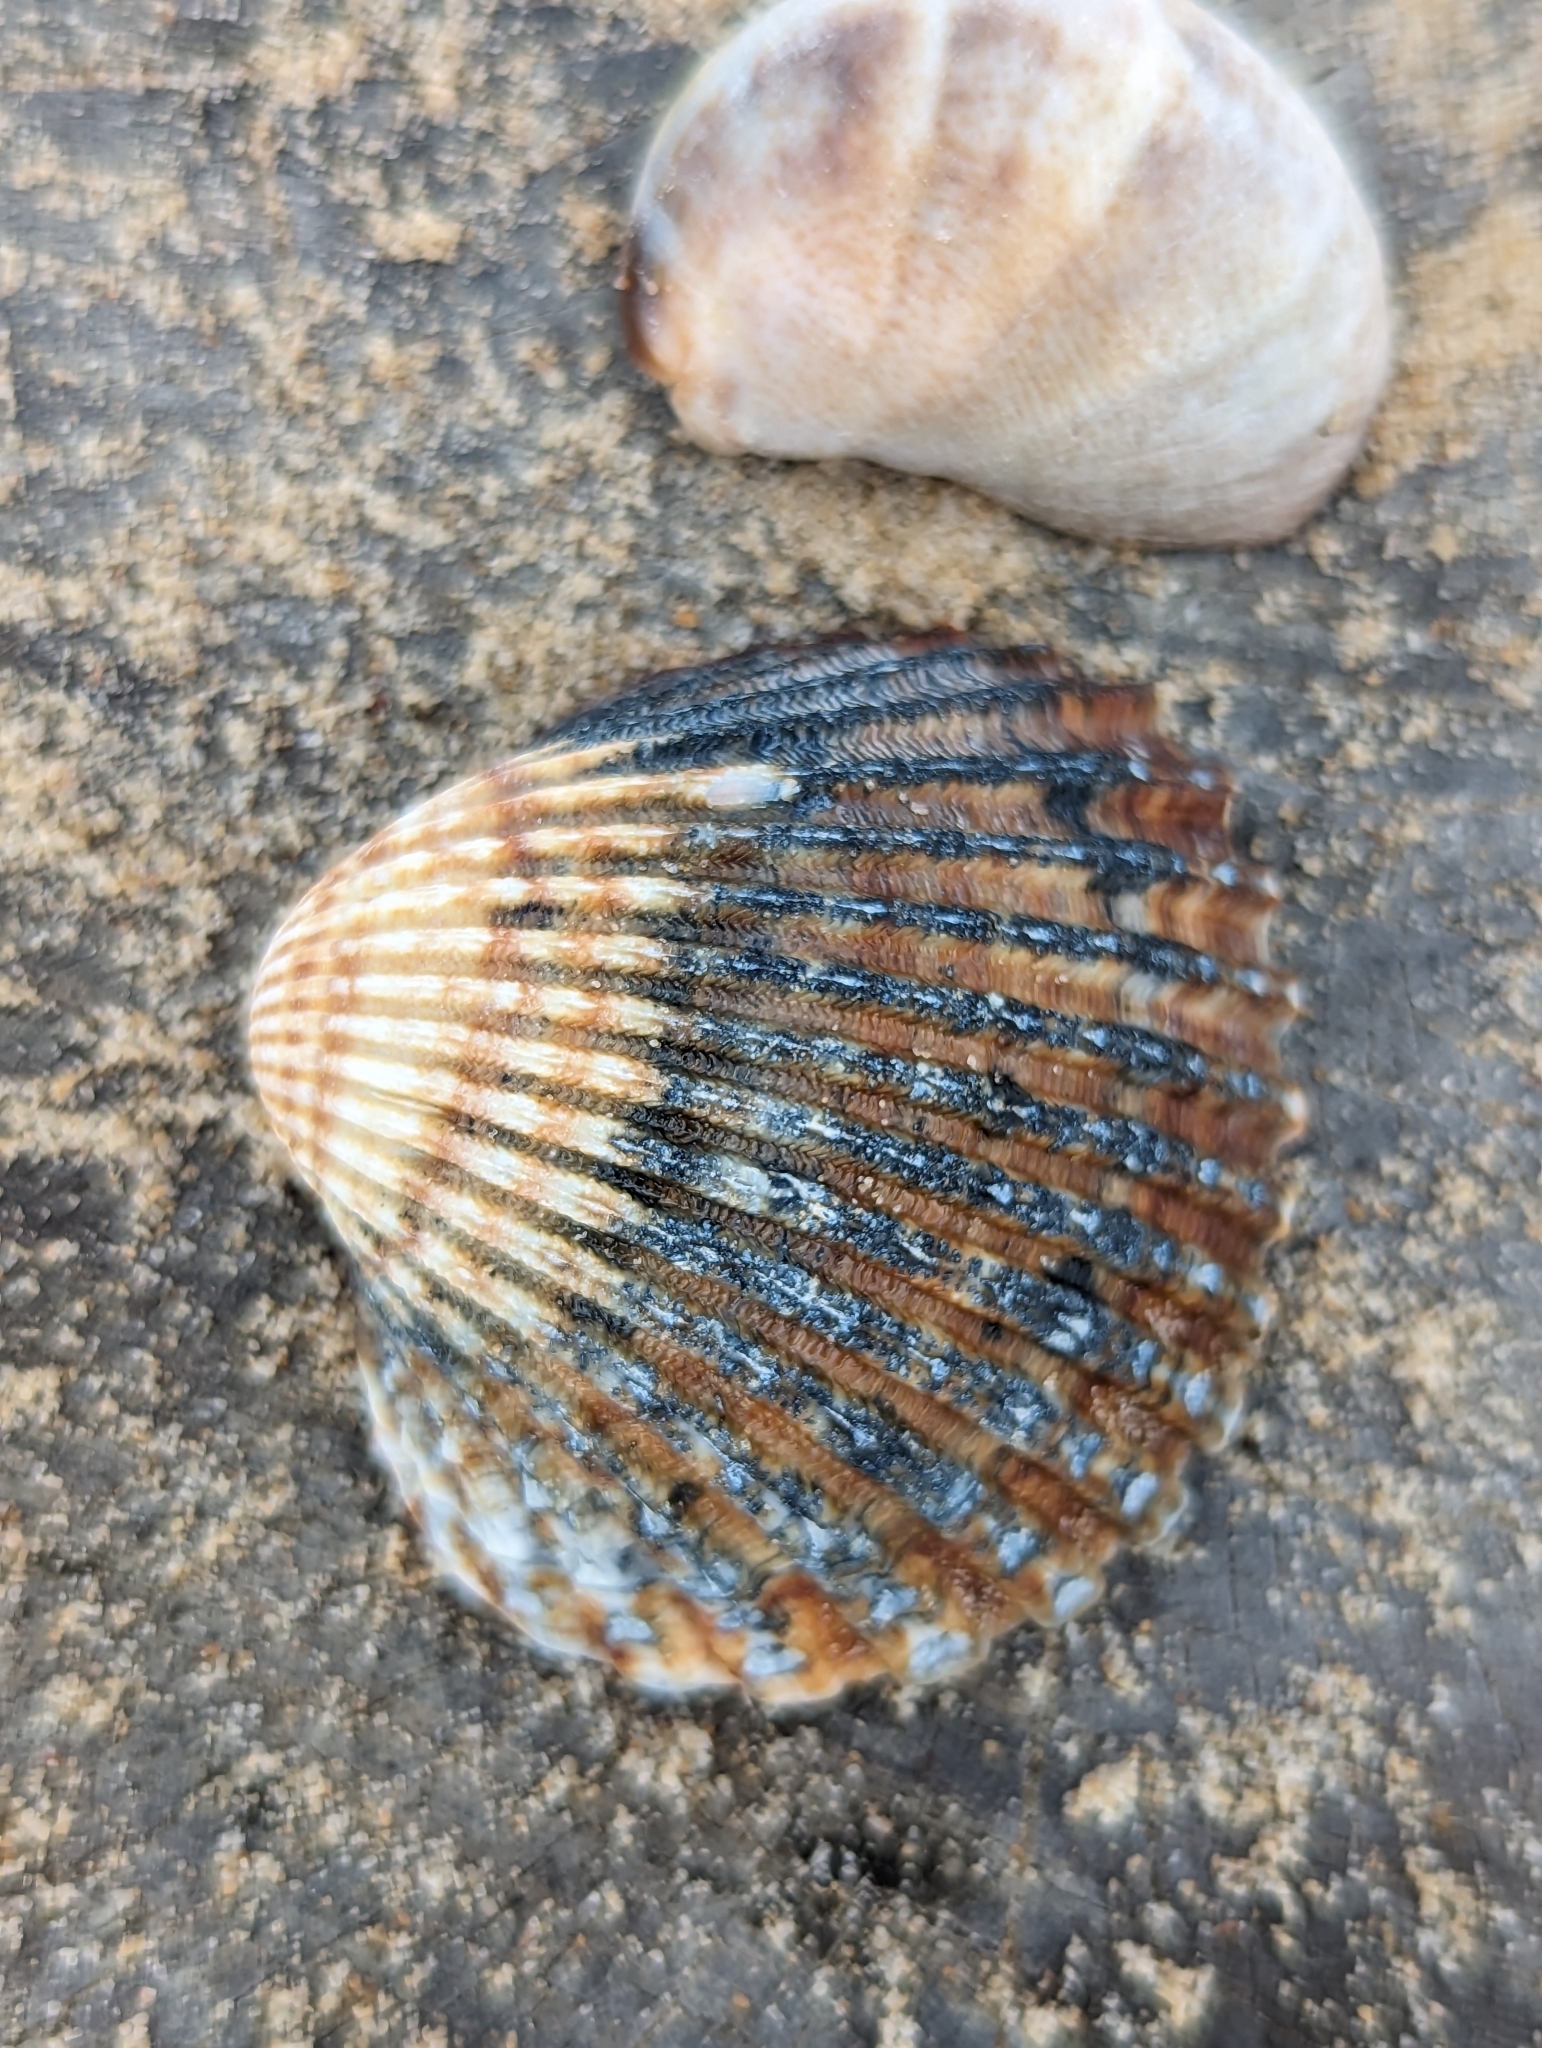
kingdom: Animalia
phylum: Mollusca
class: Bivalvia
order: Cardiida
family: Cardiidae
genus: Acanthocardia
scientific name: Acanthocardia tuberculata
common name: Rough cockle
